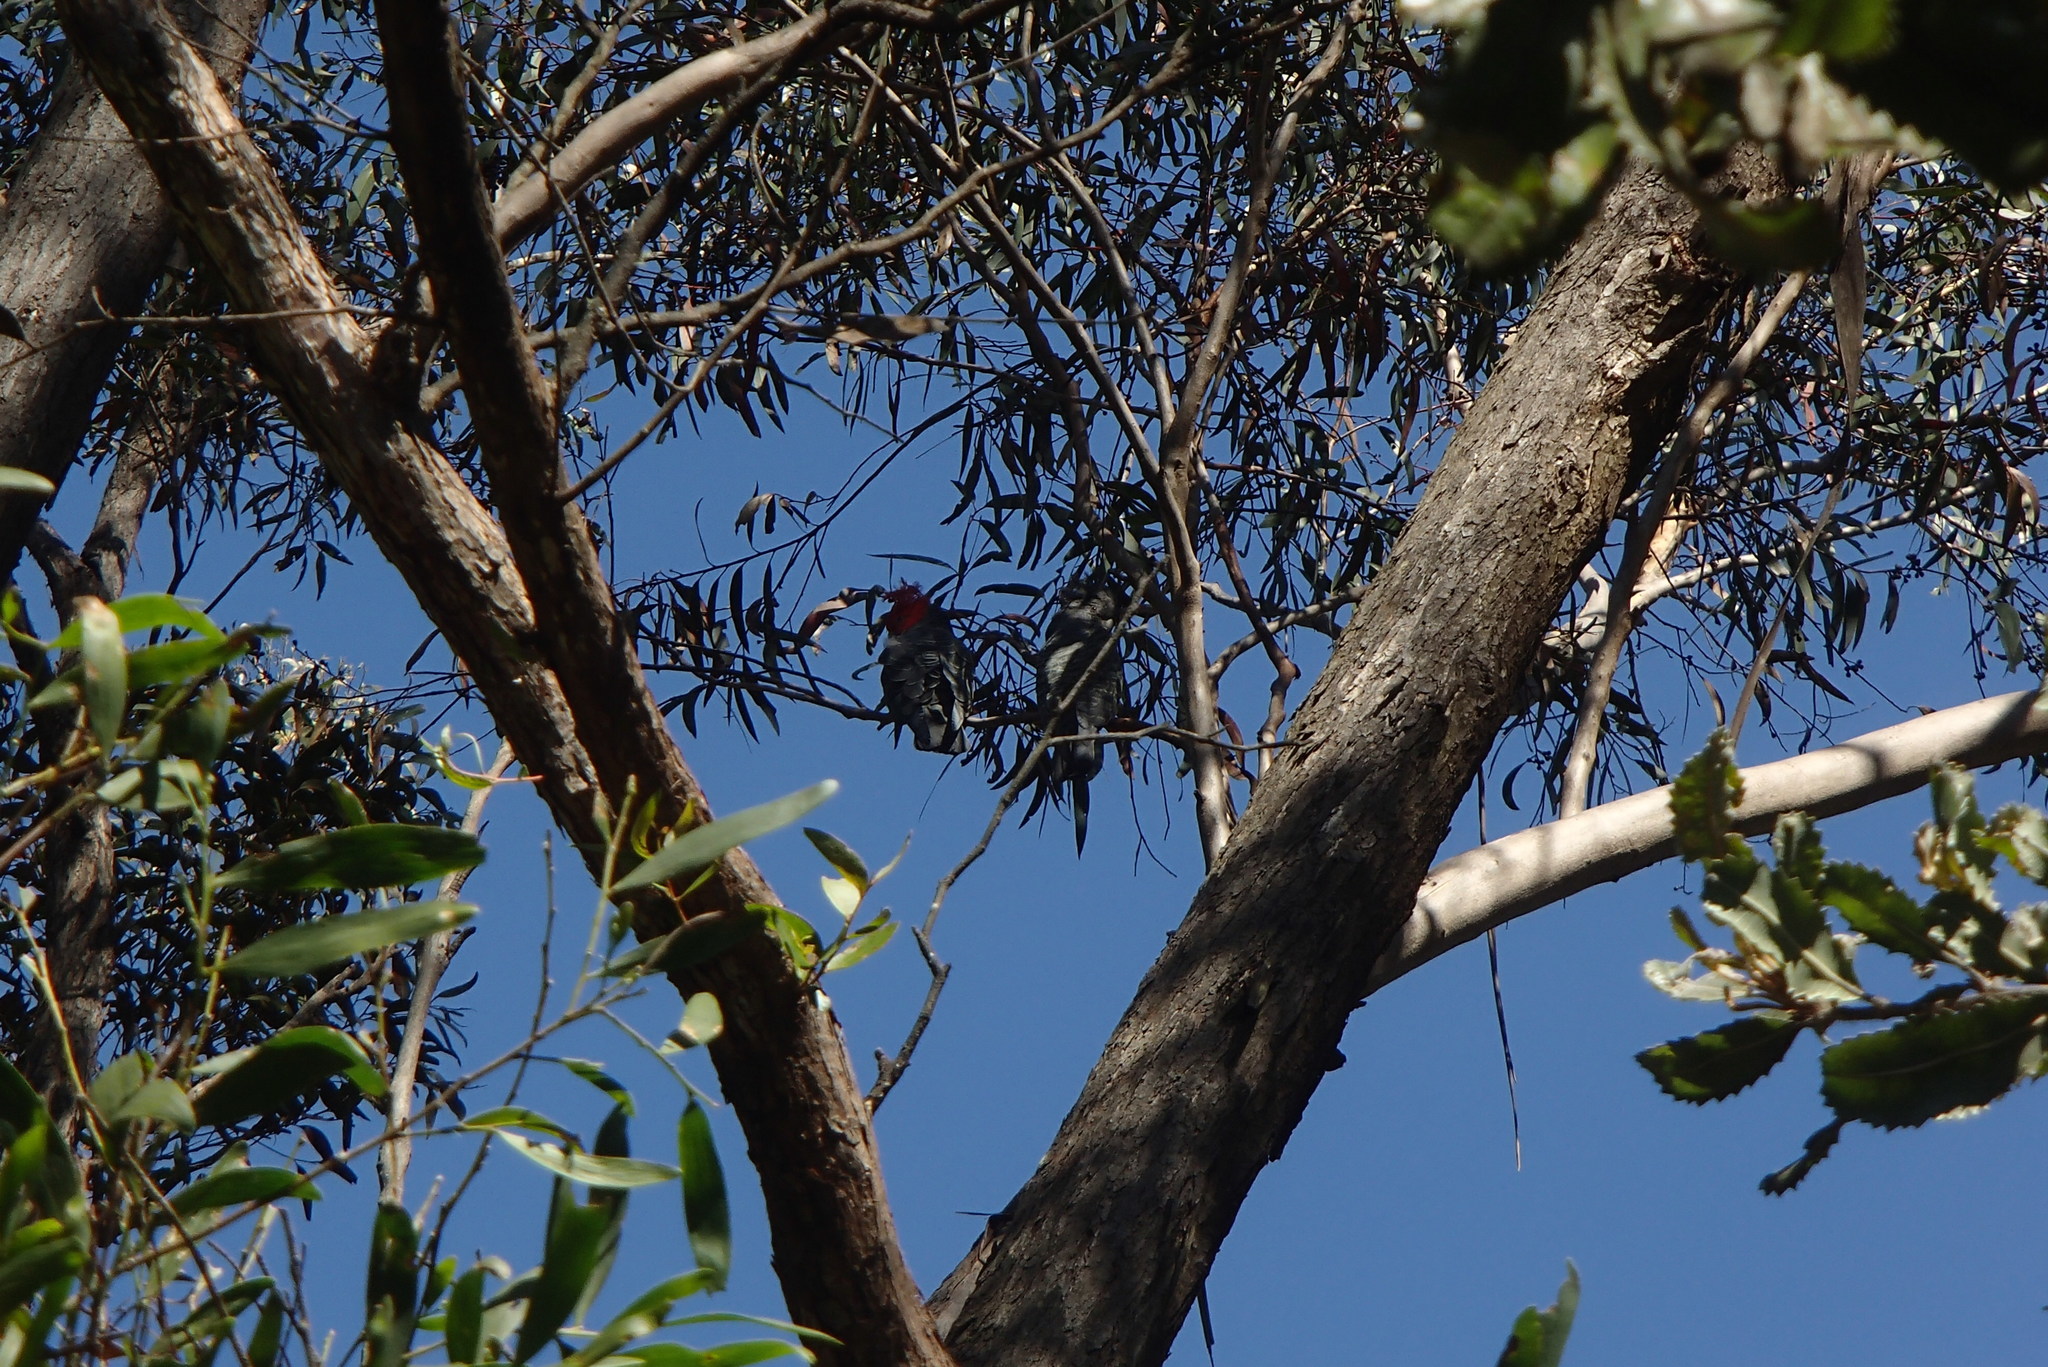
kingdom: Animalia
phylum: Chordata
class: Aves
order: Psittaciformes
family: Psittacidae
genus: Callocephalon
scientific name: Callocephalon fimbriatum
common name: Gang-gang cockatoo
